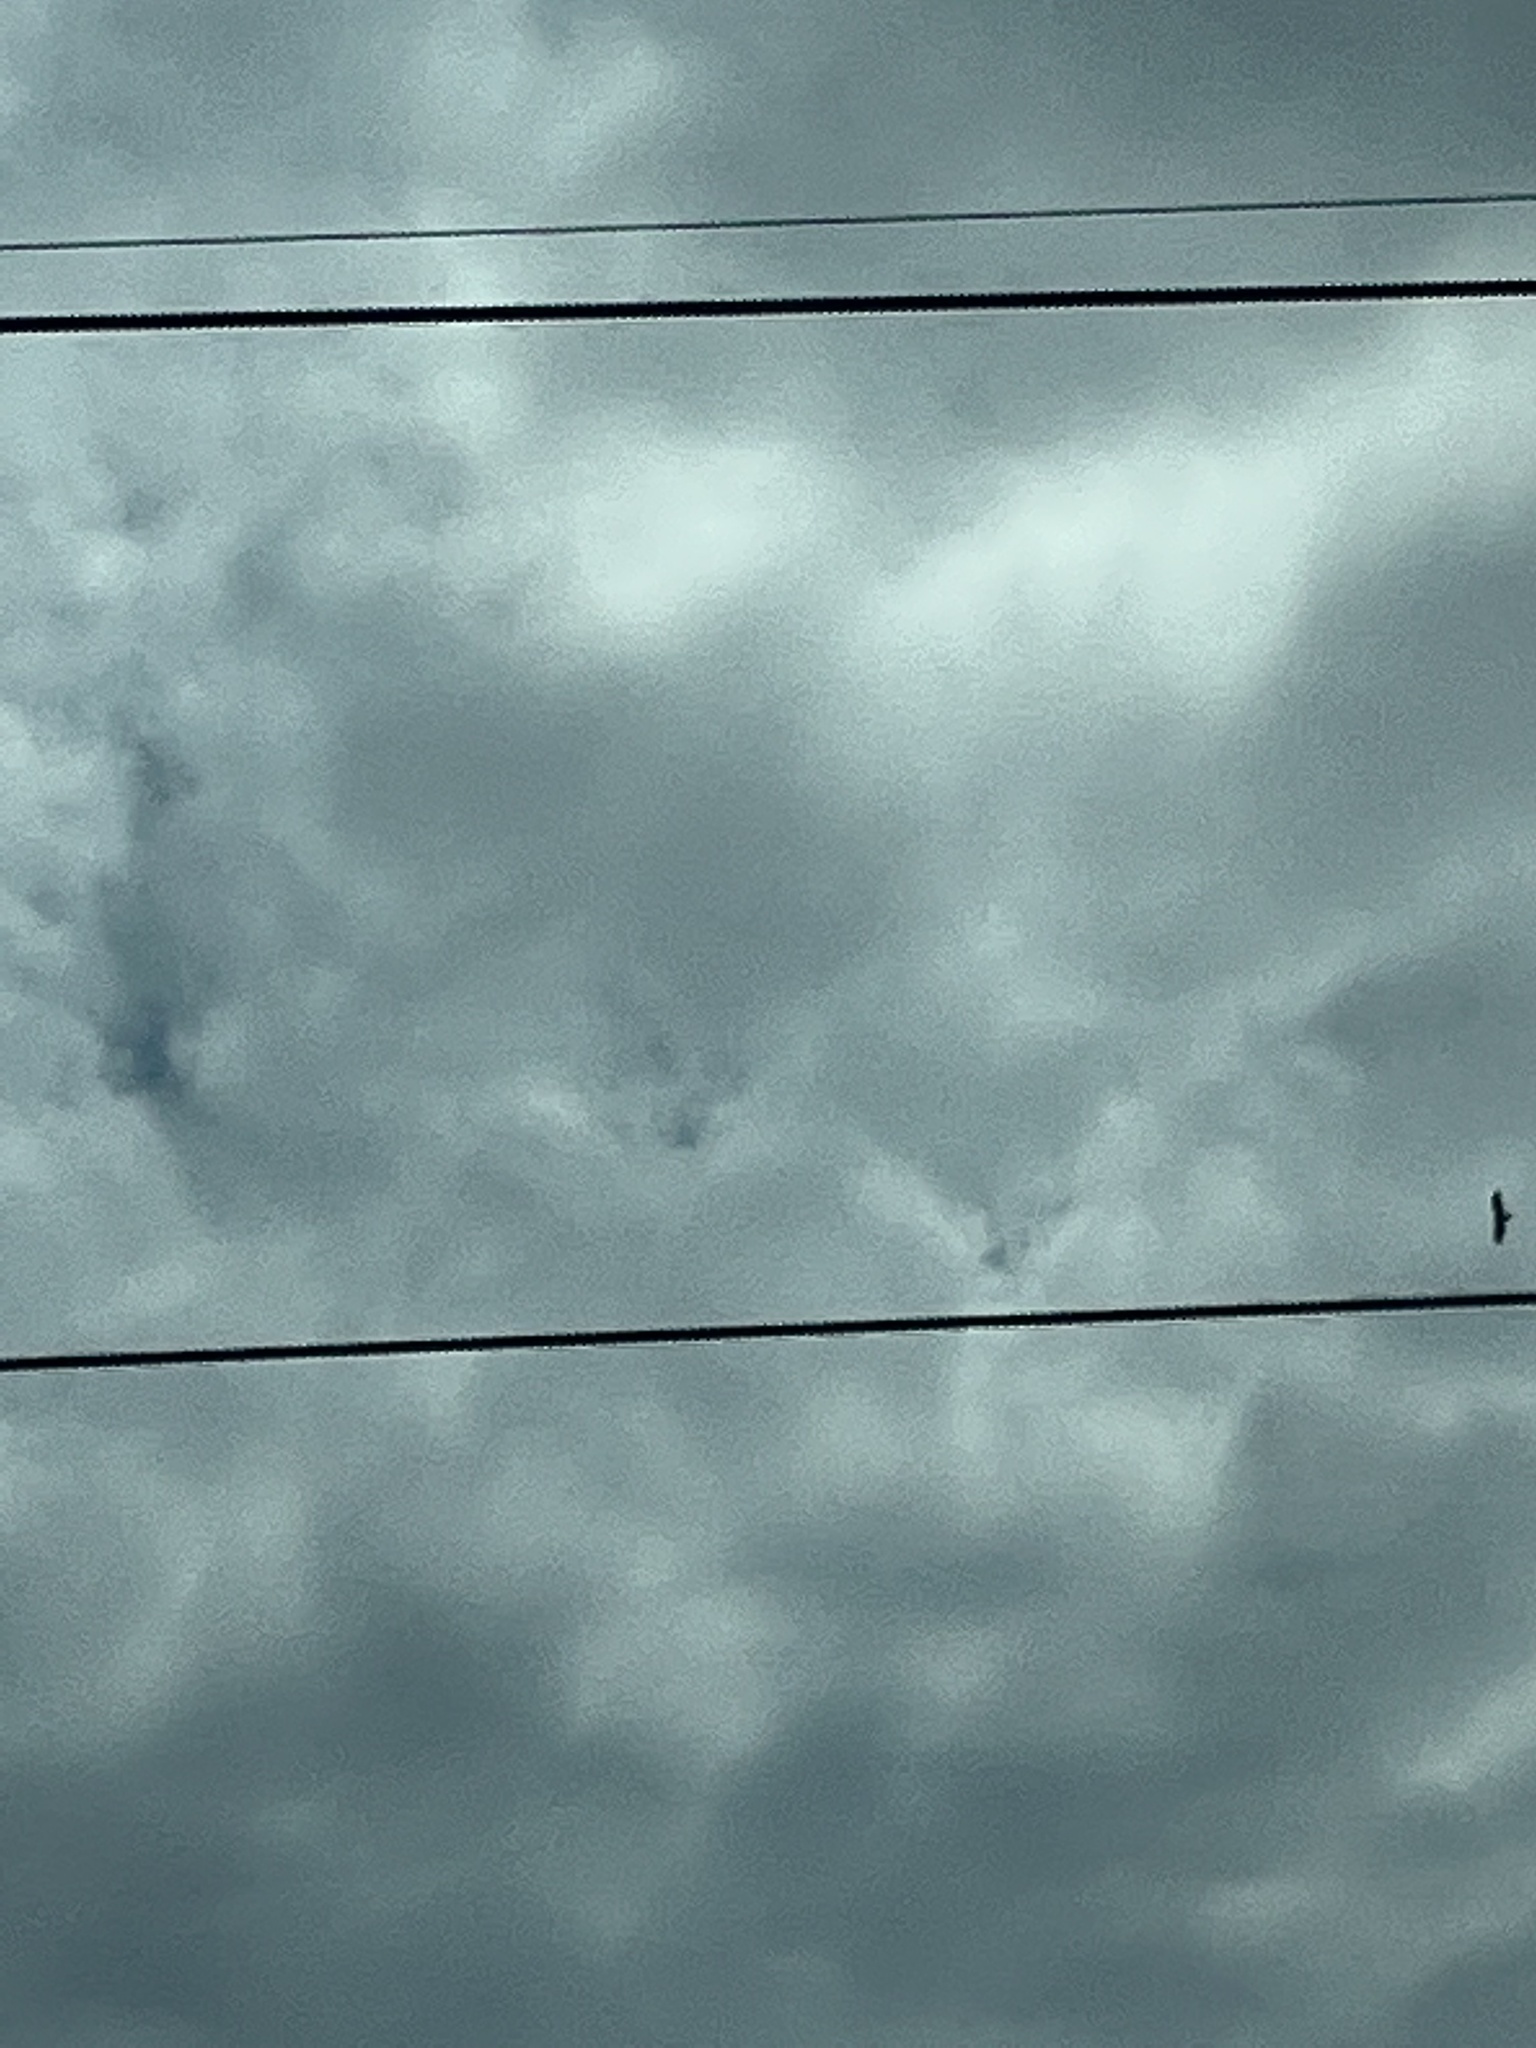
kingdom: Animalia
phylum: Chordata
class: Aves
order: Accipitriformes
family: Cathartidae
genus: Cathartes
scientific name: Cathartes aura
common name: Turkey vulture
